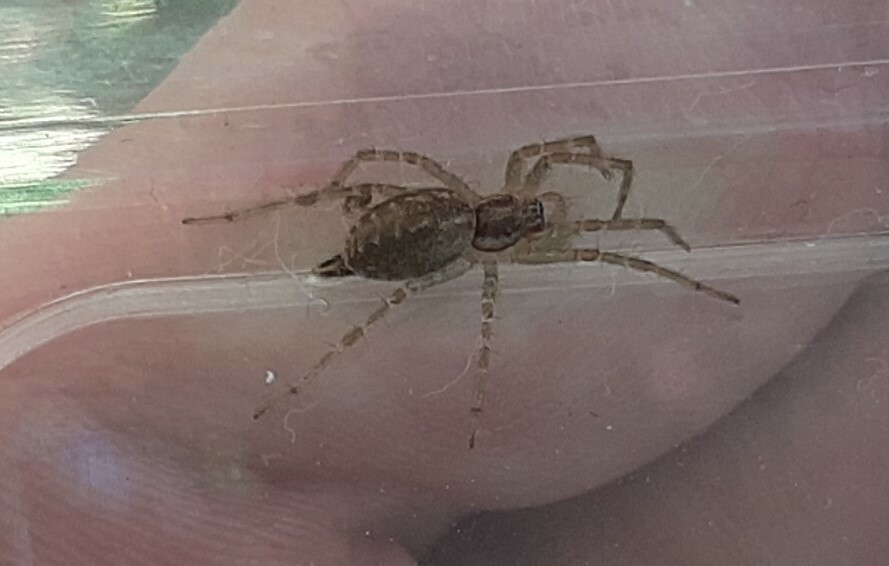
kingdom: Animalia
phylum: Arthropoda
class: Arachnida
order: Araneae
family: Agelenidae
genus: Allagelena
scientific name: Allagelena gracilens
